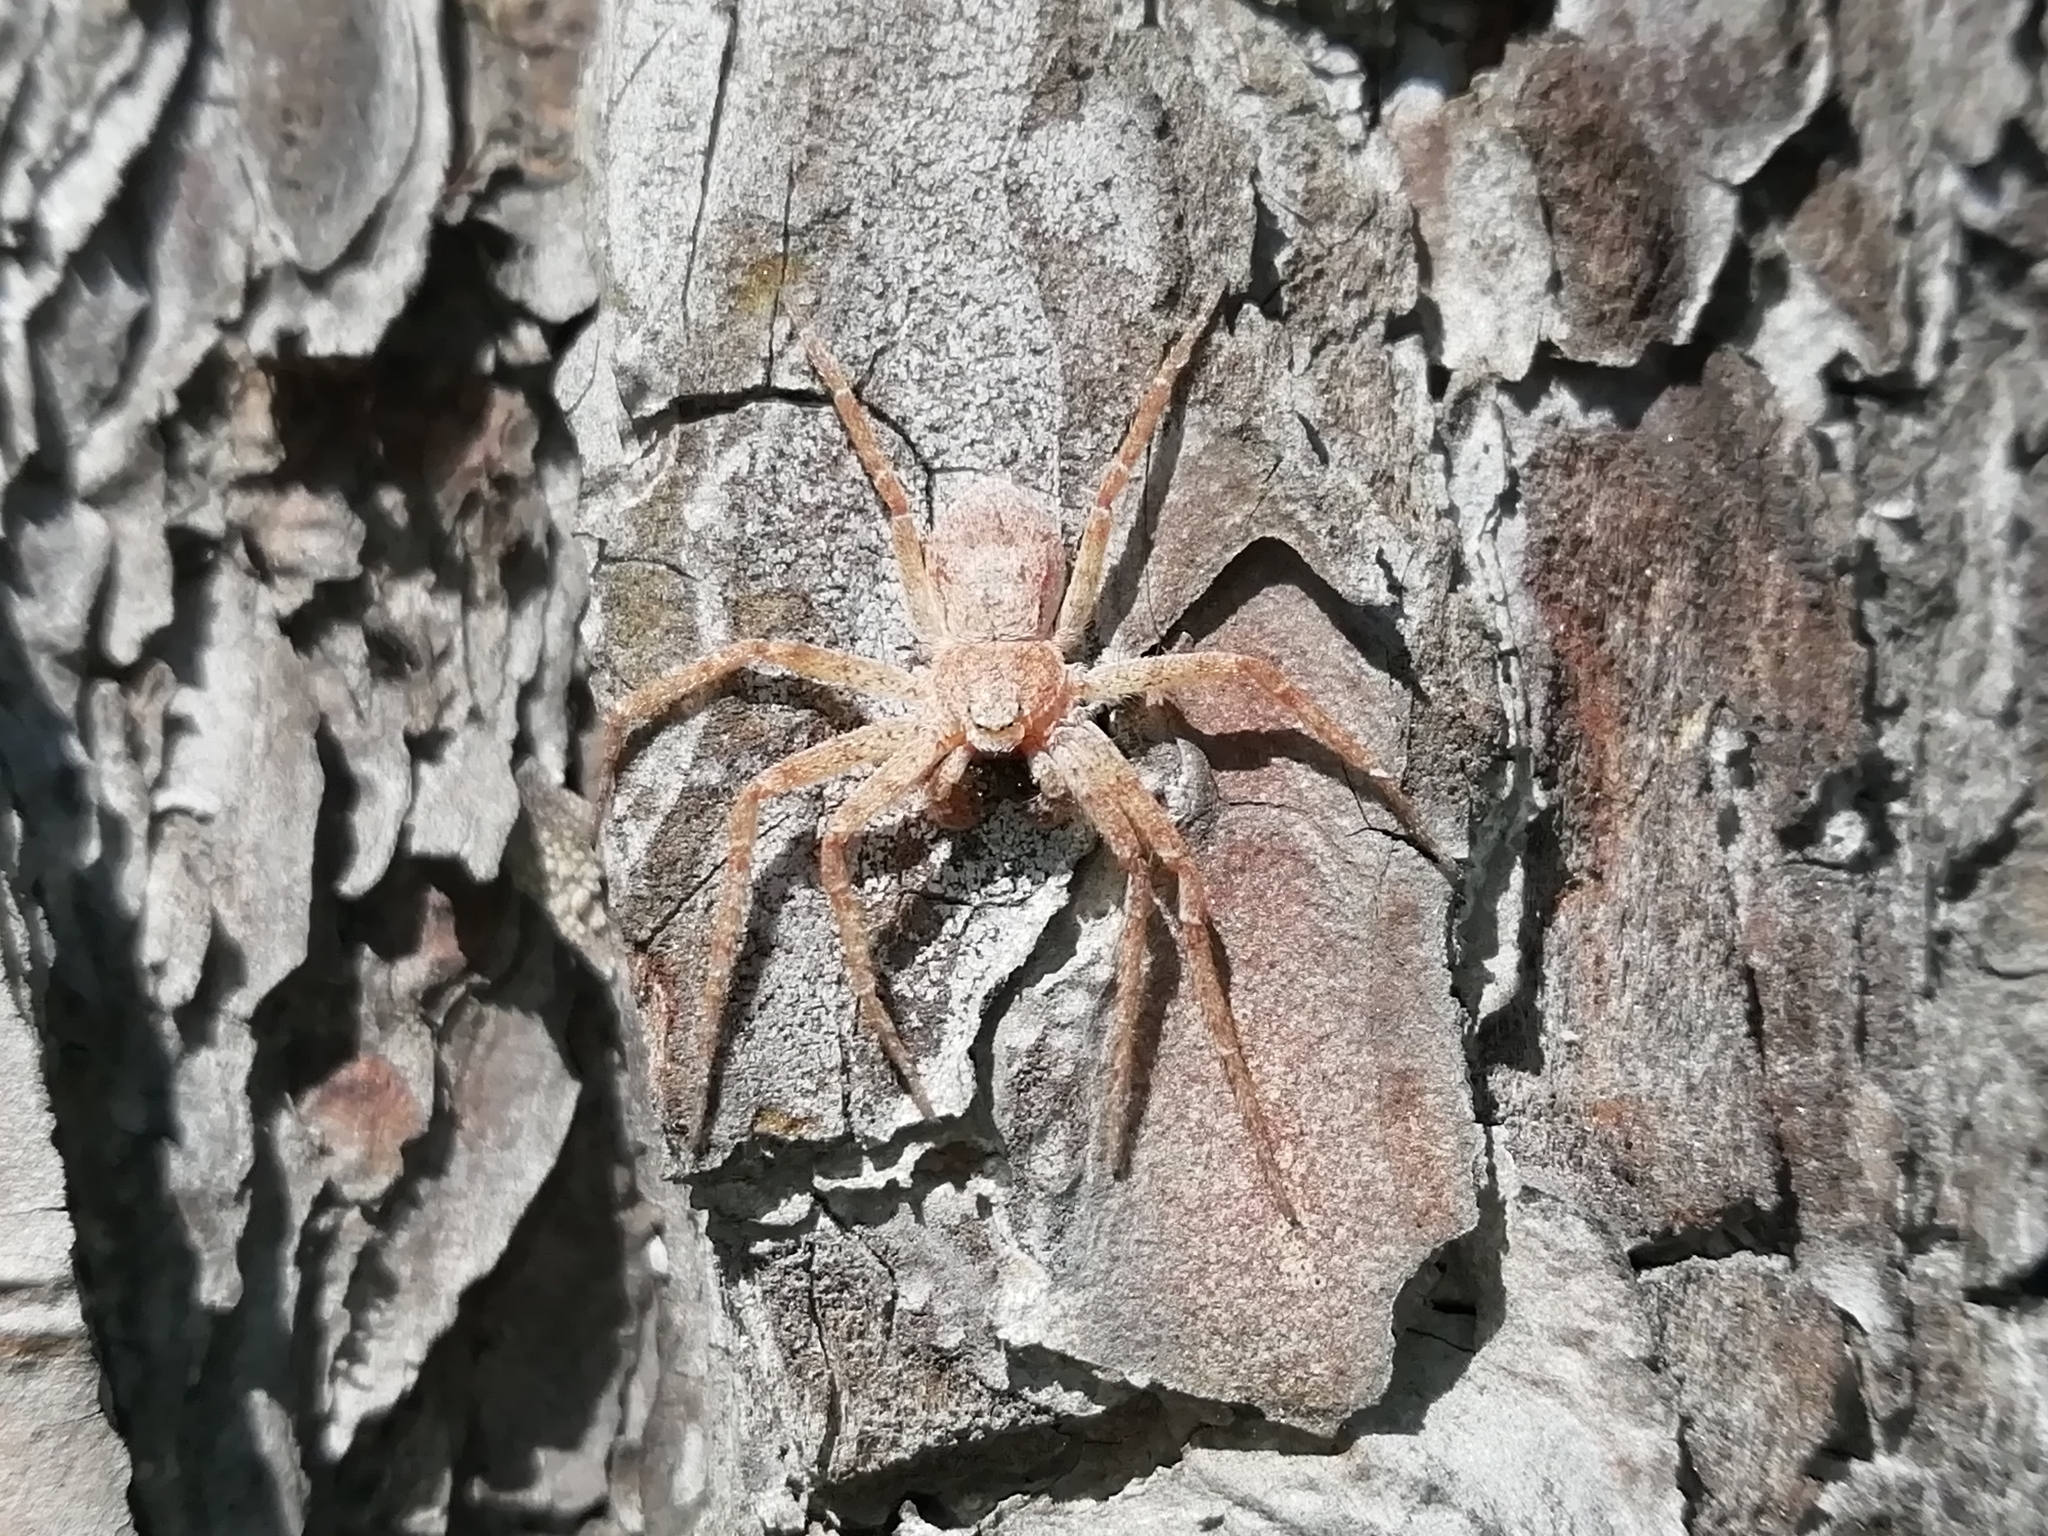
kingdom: Animalia
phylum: Arthropoda
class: Arachnida
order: Araneae
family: Philodromidae
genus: Philodromus
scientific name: Philodromus fuscomarginatus
